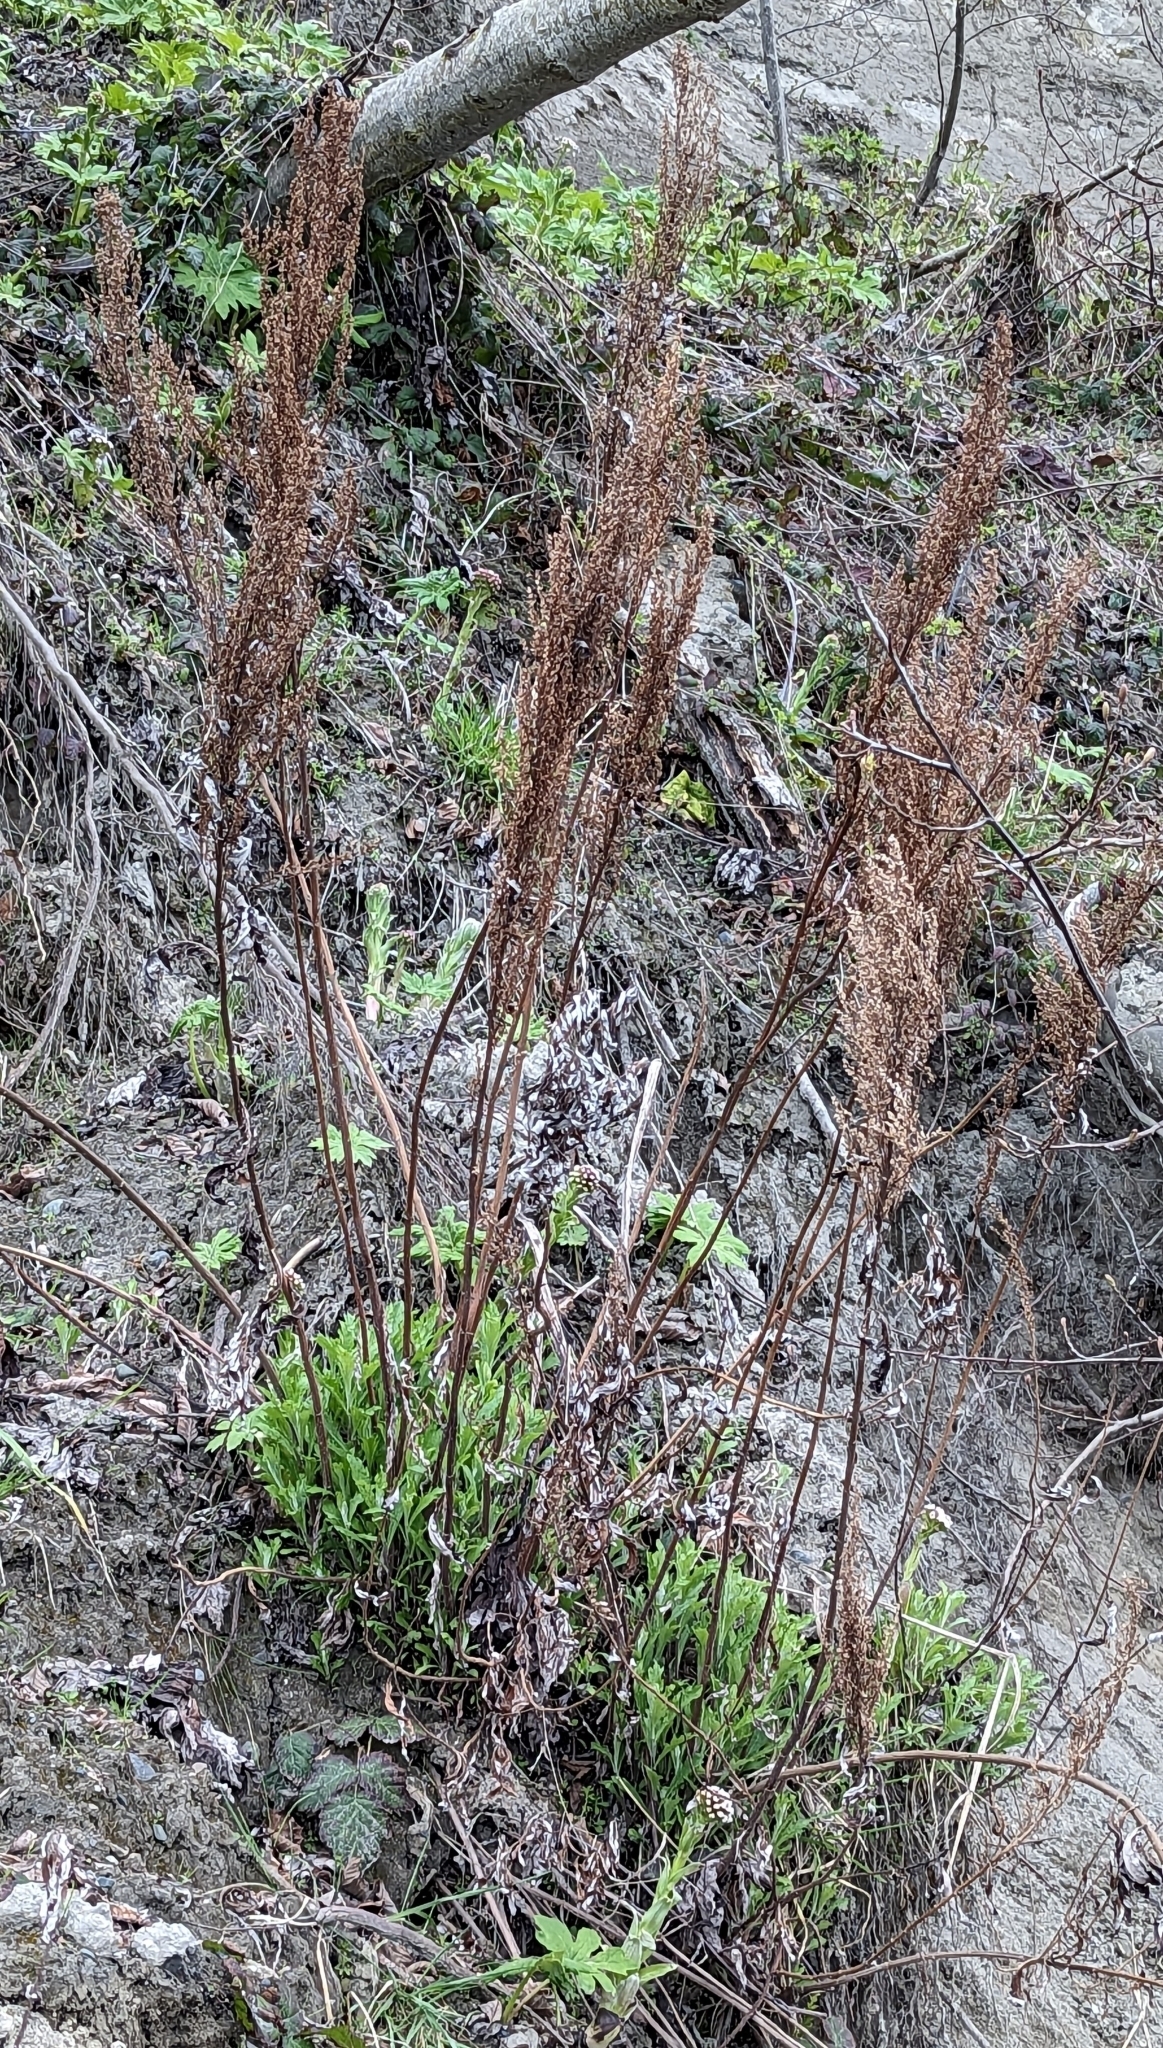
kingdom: Plantae
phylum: Tracheophyta
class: Magnoliopsida
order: Asterales
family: Asteraceae
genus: Artemisia
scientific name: Artemisia suksdorfii
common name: Suksdorf sagewort
